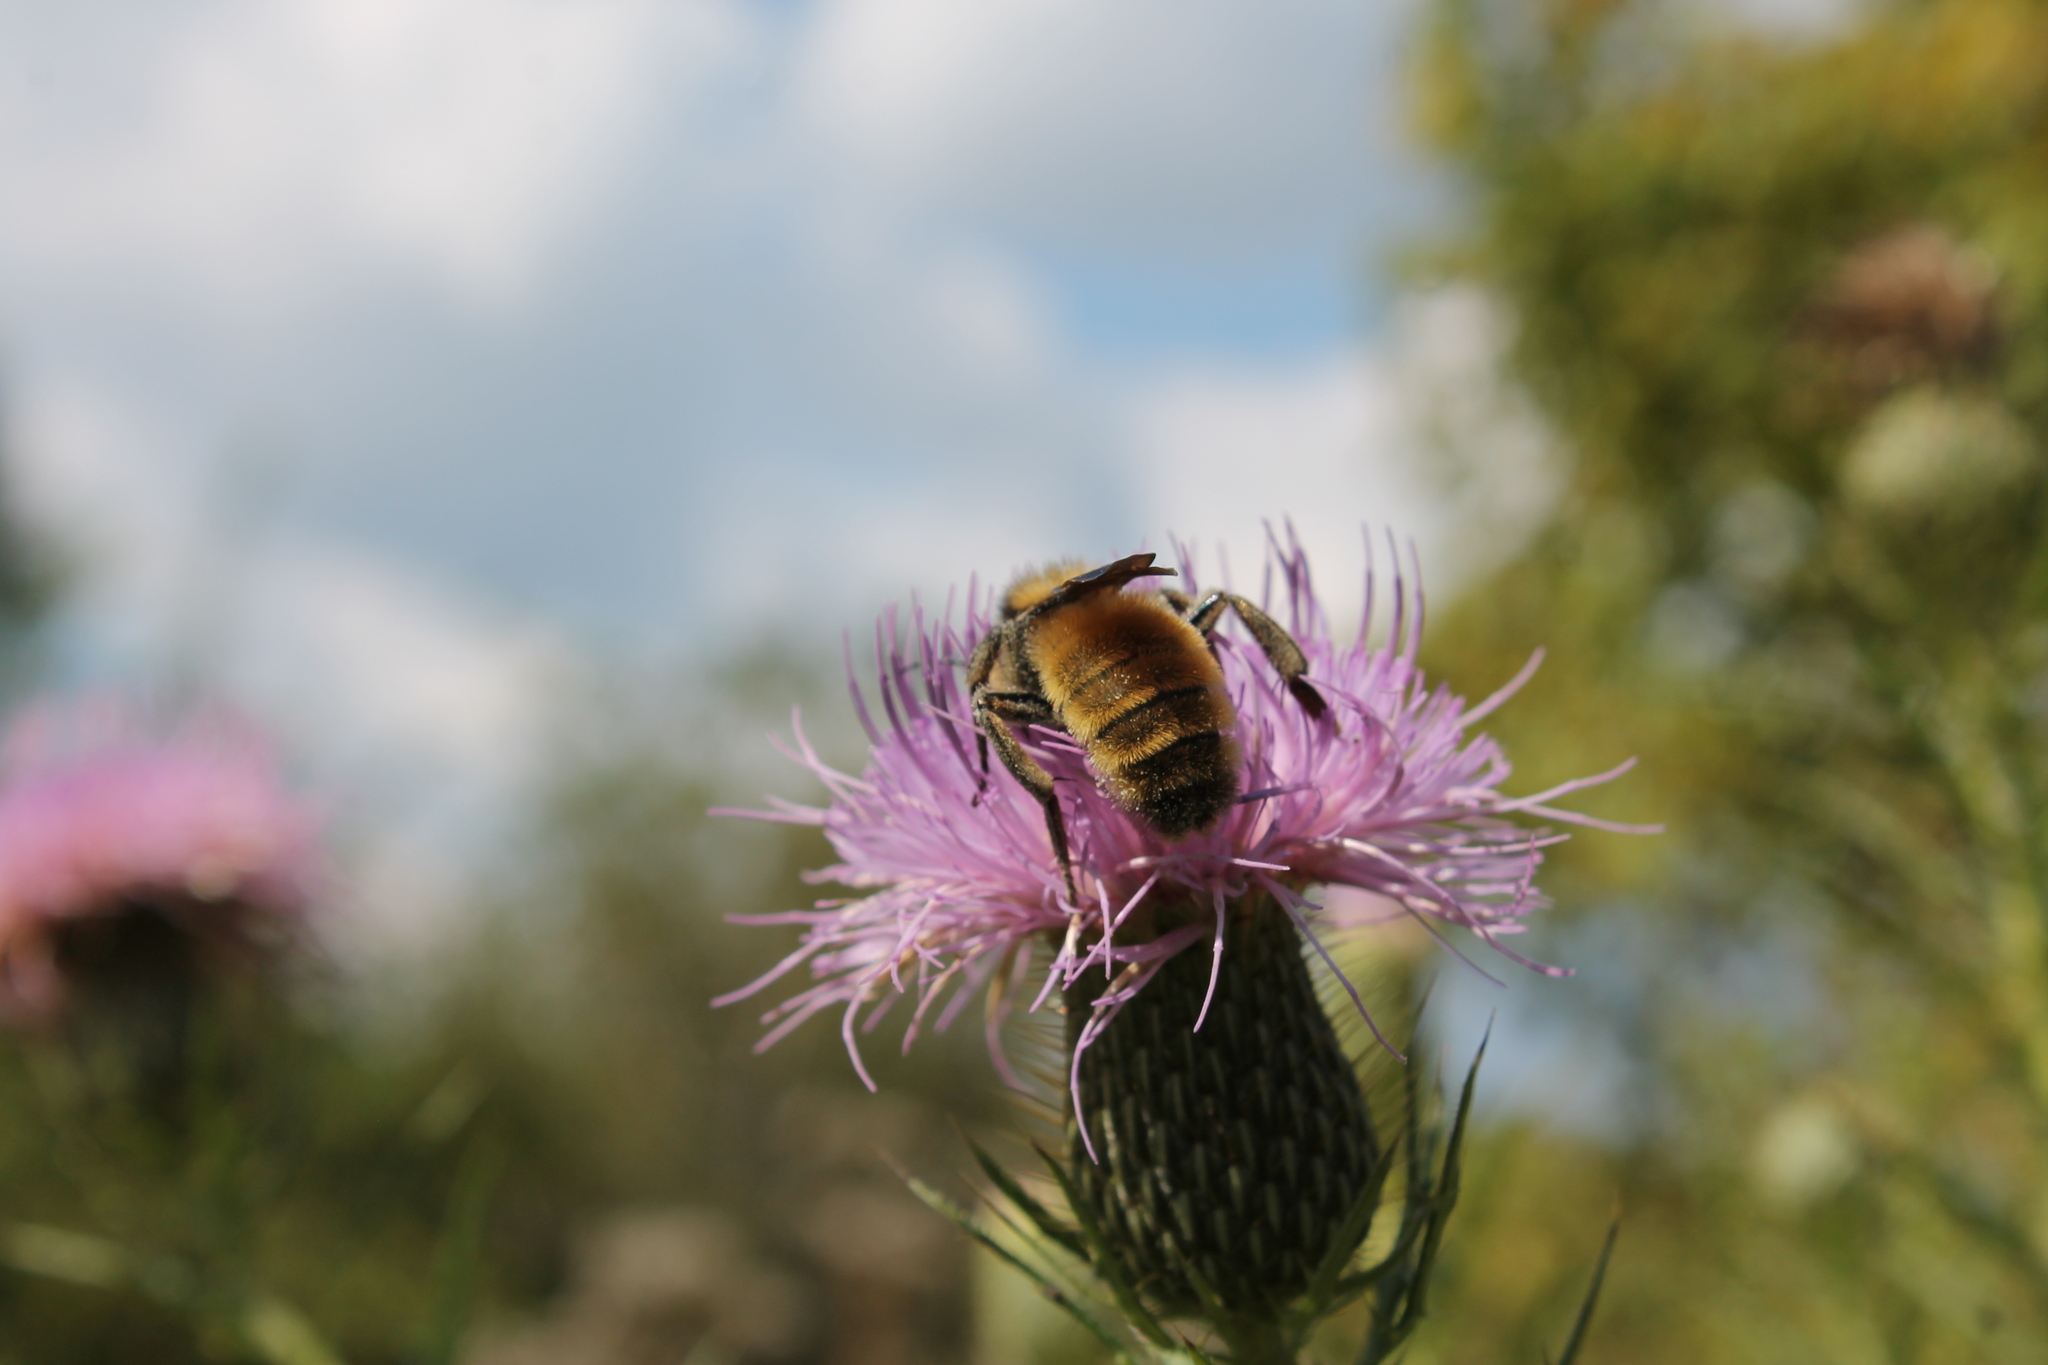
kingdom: Animalia
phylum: Arthropoda
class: Insecta
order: Hymenoptera
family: Apidae
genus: Bombus
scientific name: Bombus pensylvanicus
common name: Bumble bee
